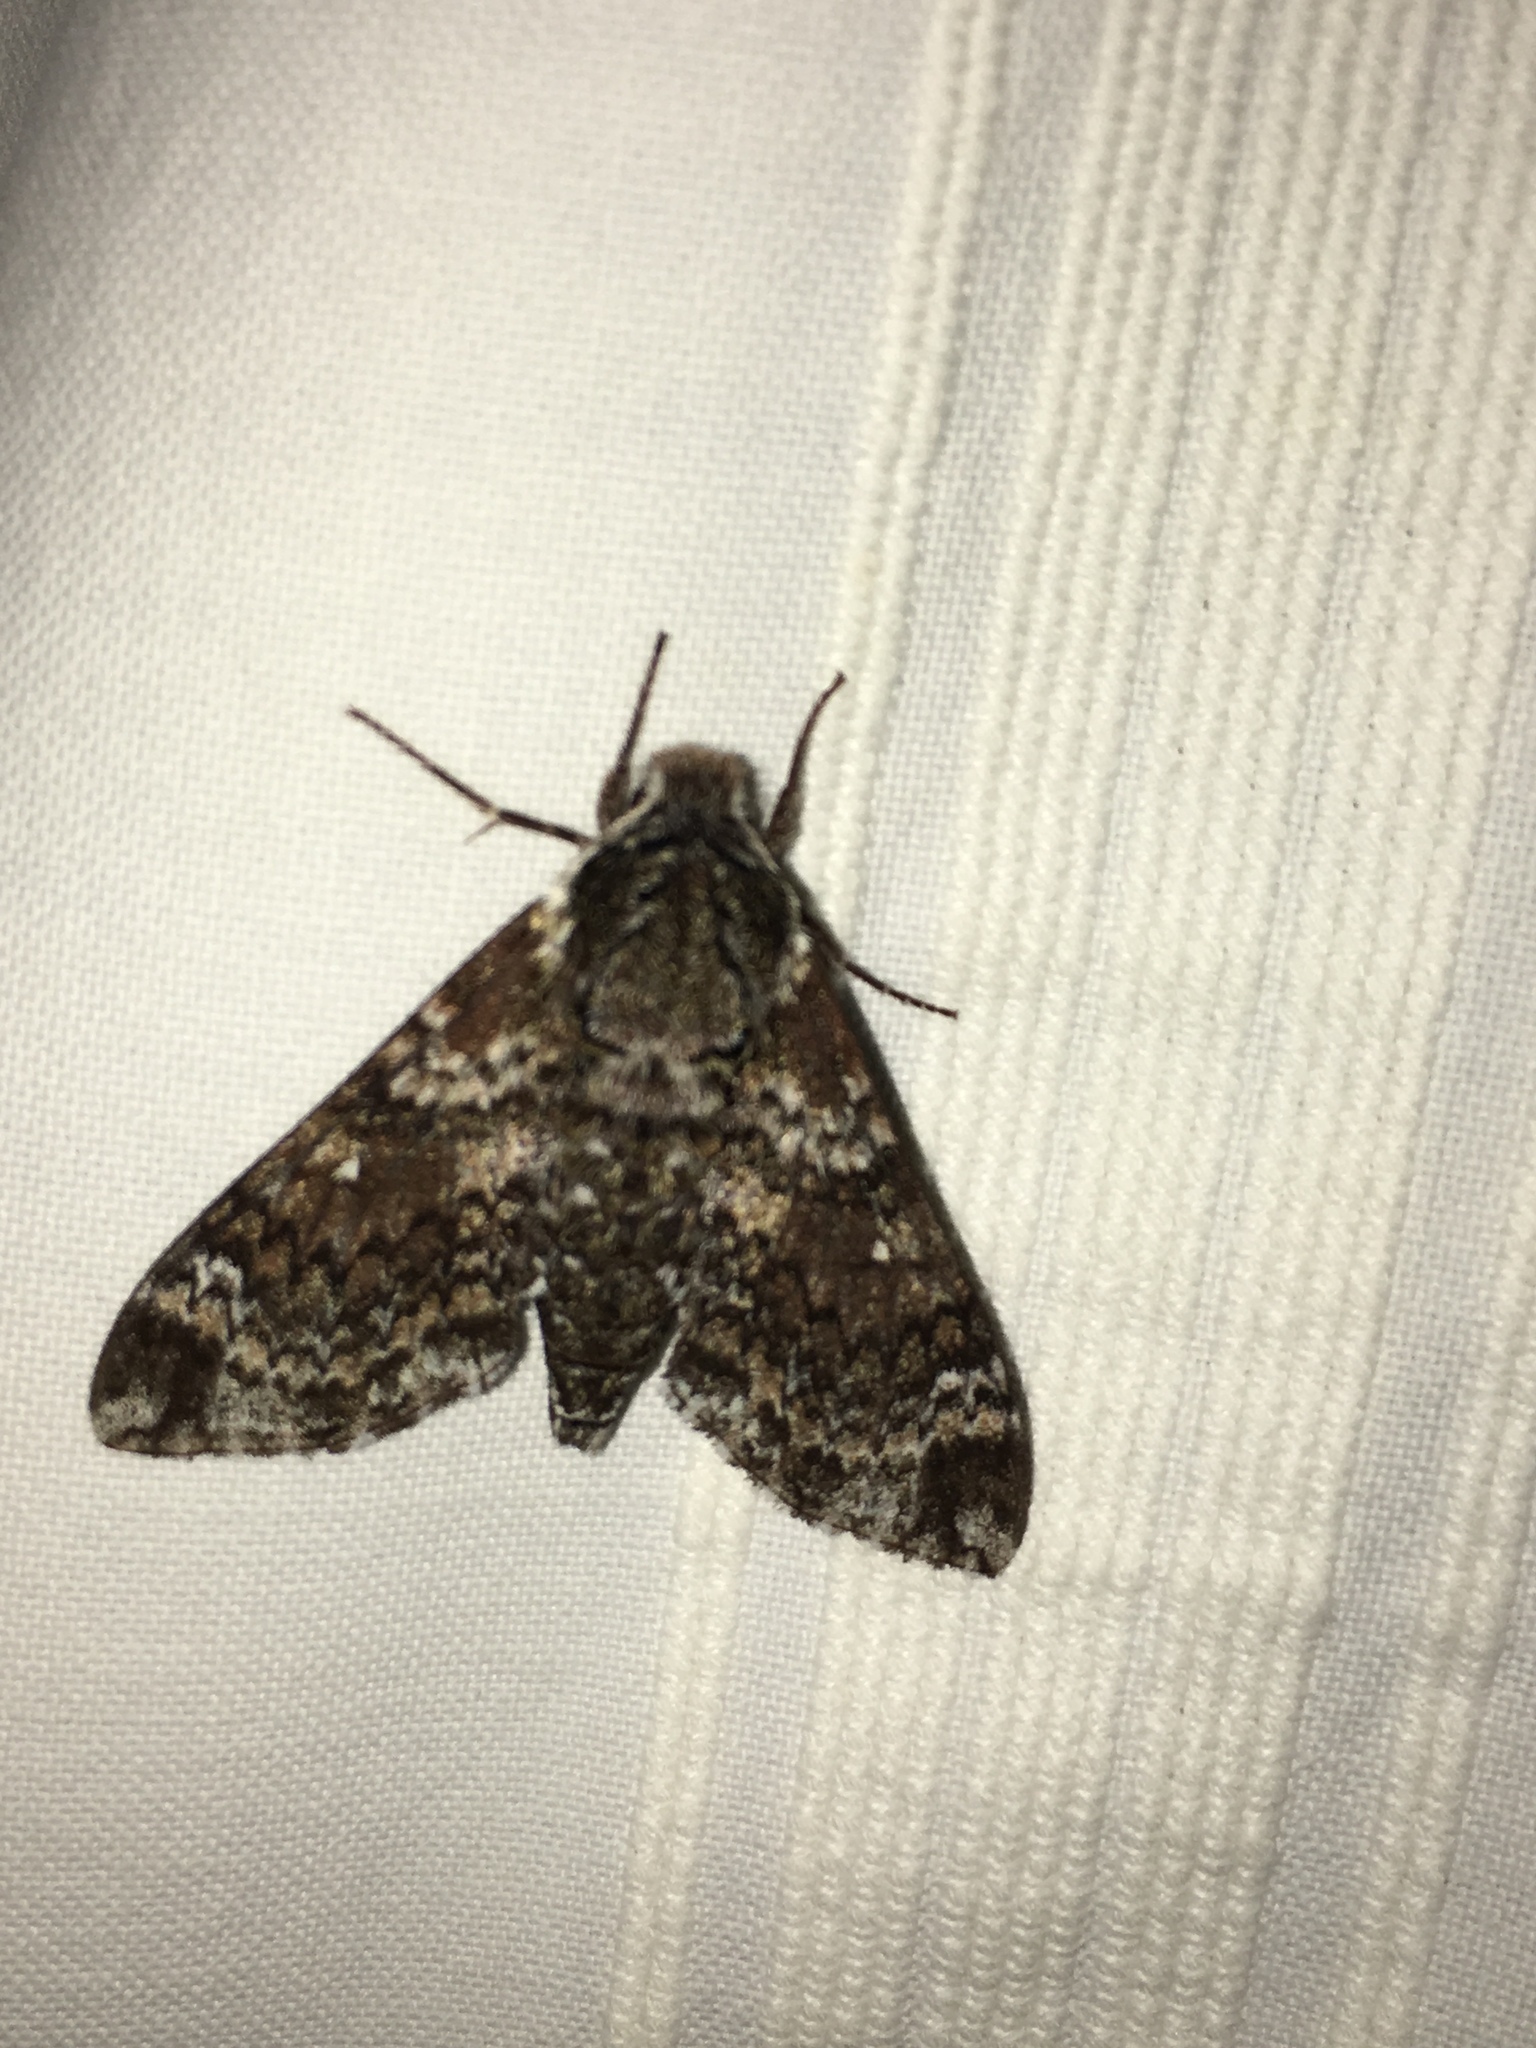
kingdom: Animalia
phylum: Arthropoda
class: Insecta
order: Lepidoptera
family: Sphingidae
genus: Dolba
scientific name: Dolba hyloeus
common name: Pawpaw sphinx
